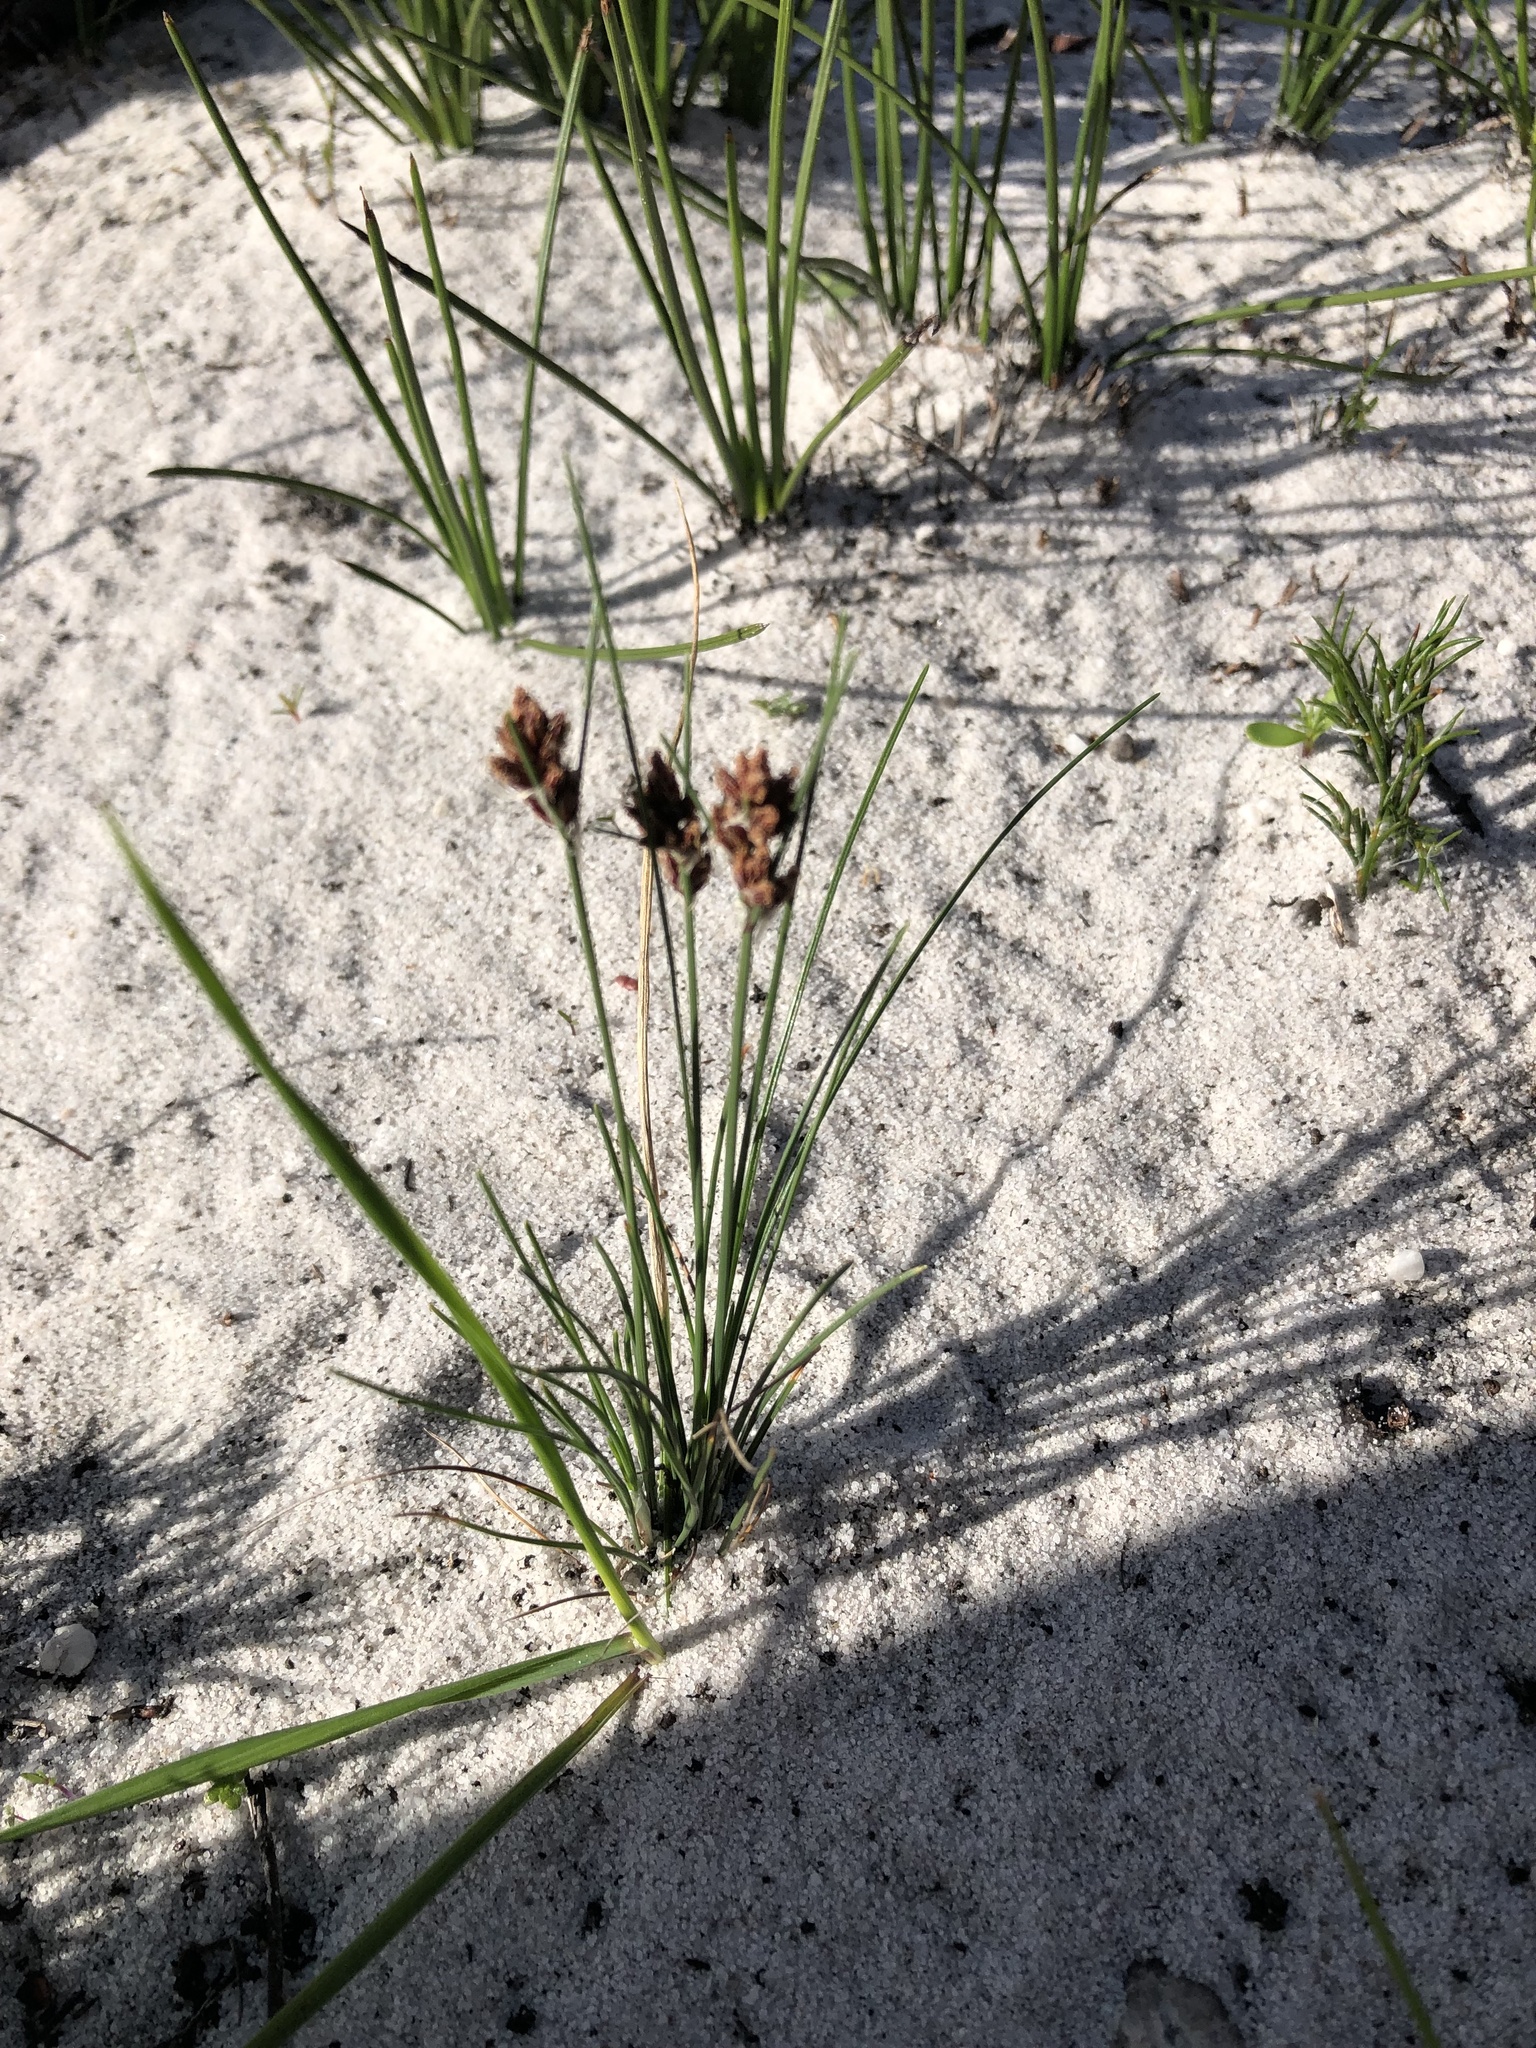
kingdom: Plantae
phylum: Tracheophyta
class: Liliopsida
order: Poales
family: Cyperaceae
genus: Ficinia
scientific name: Ficinia bulbosa
